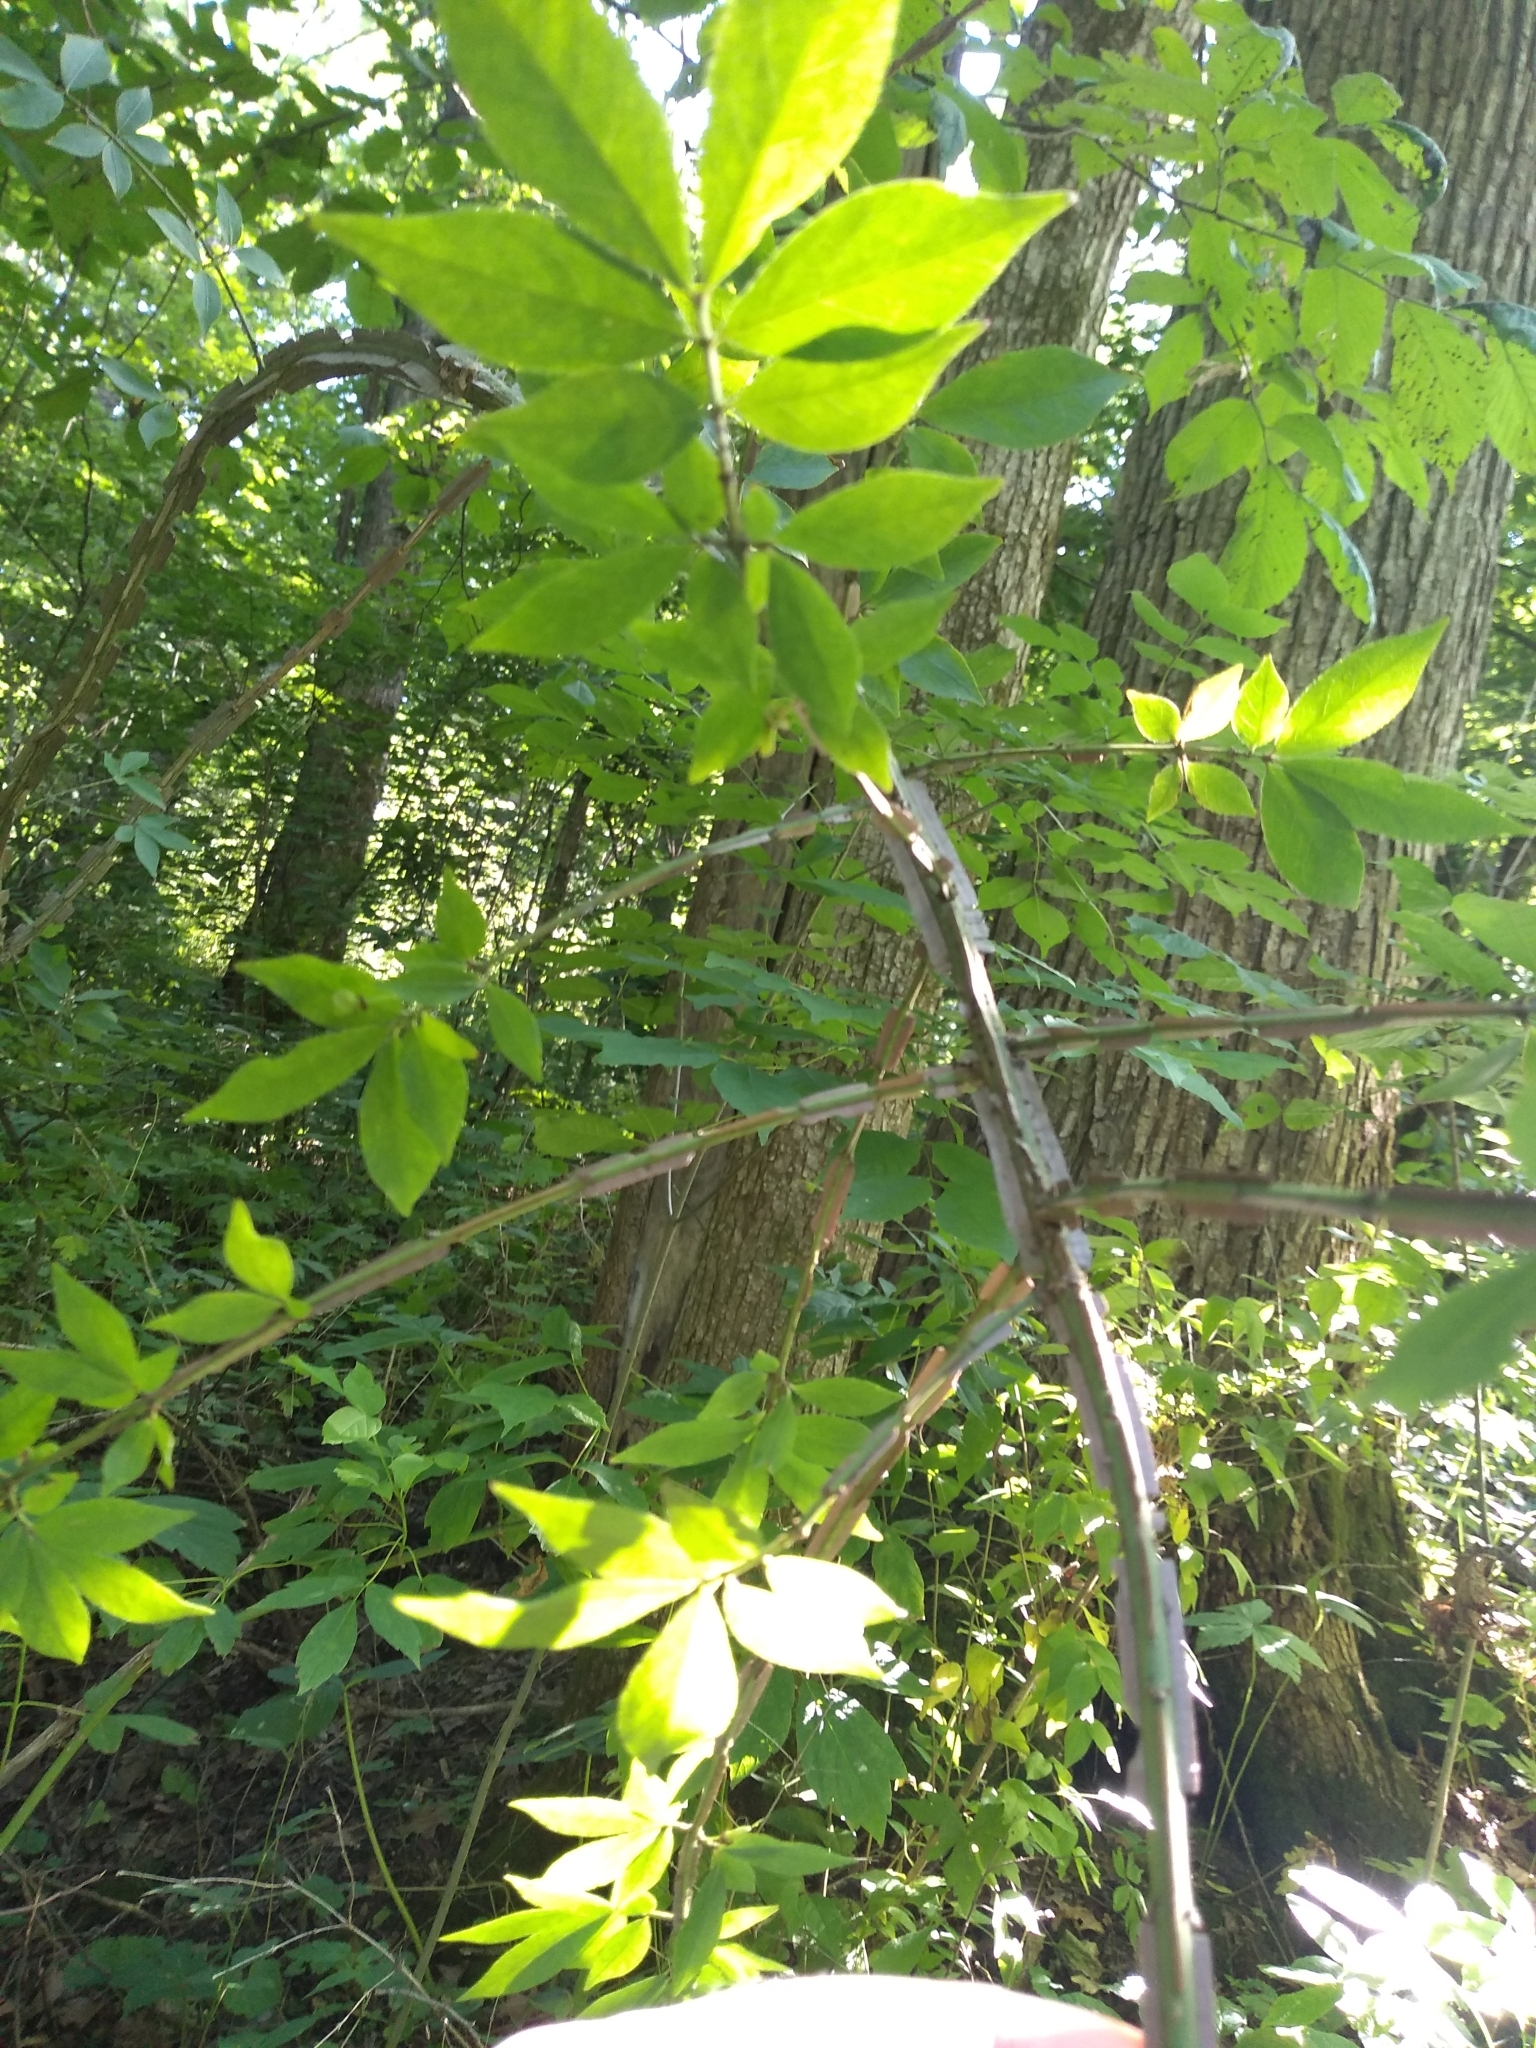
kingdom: Plantae
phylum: Tracheophyta
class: Magnoliopsida
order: Celastrales
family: Celastraceae
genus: Euonymus
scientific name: Euonymus alatus
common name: Winged euonymus
